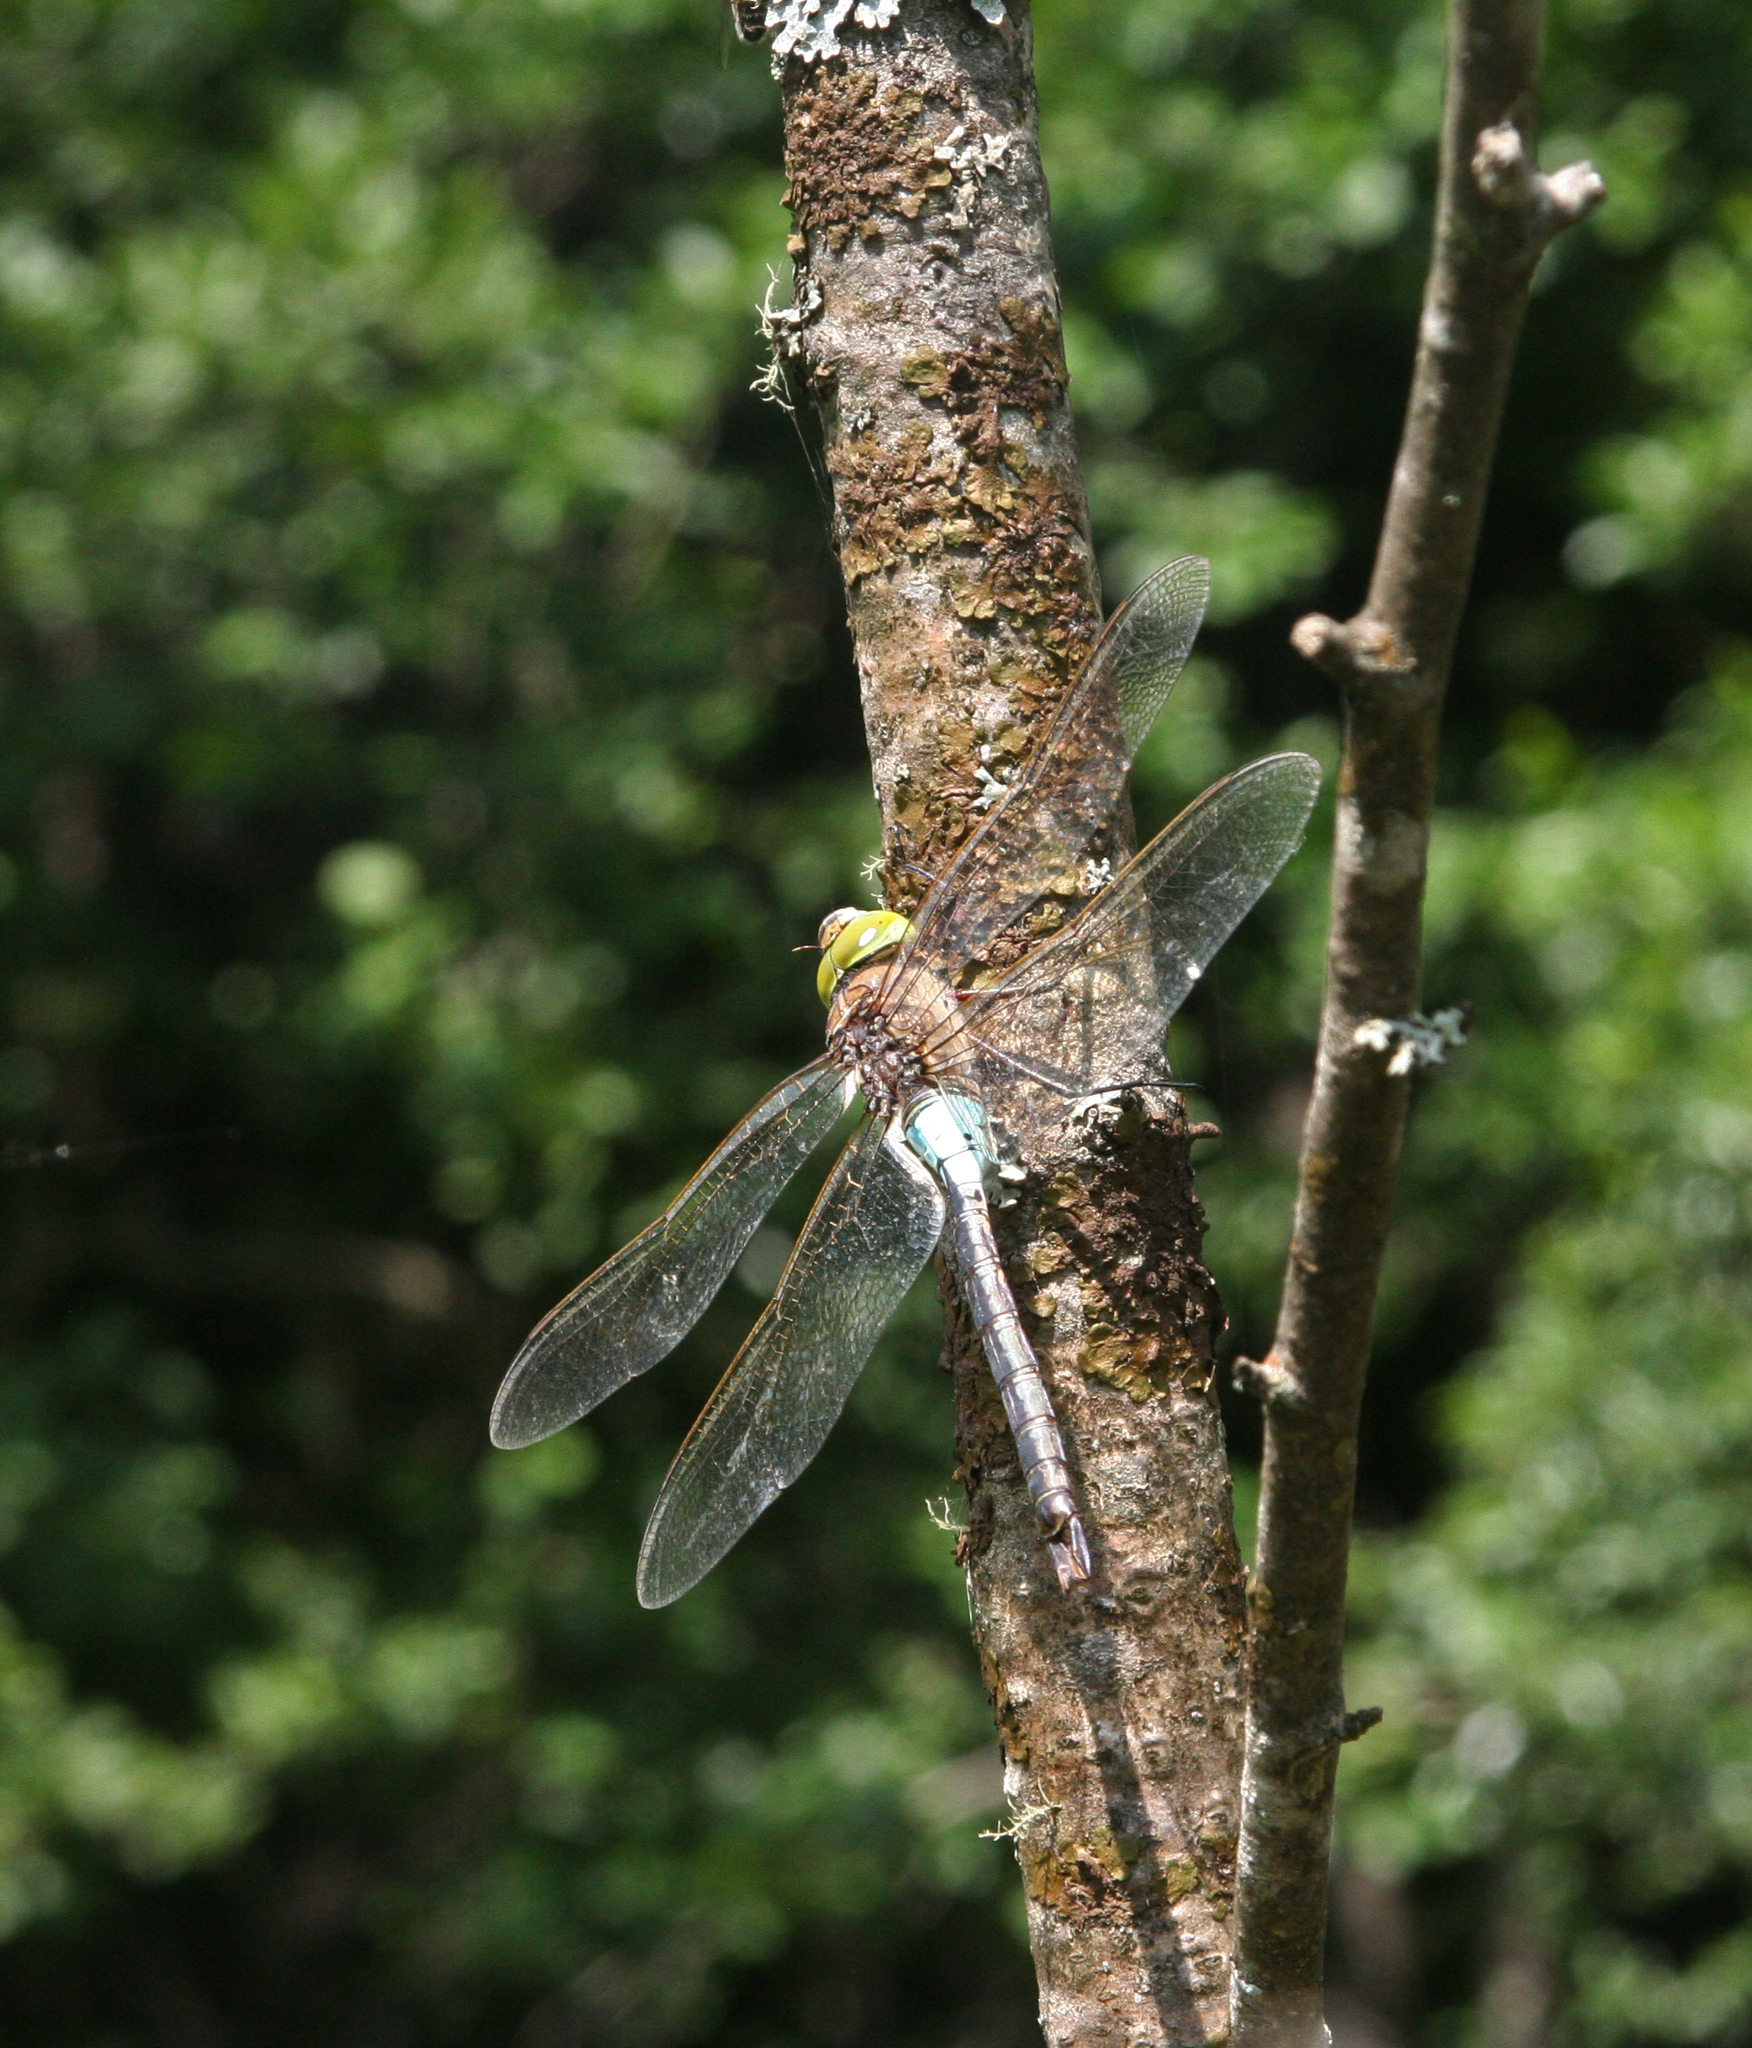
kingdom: Animalia
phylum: Arthropoda
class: Insecta
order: Odonata
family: Aeshnidae
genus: Anax
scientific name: Anax parthenope
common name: Lesser emperor
